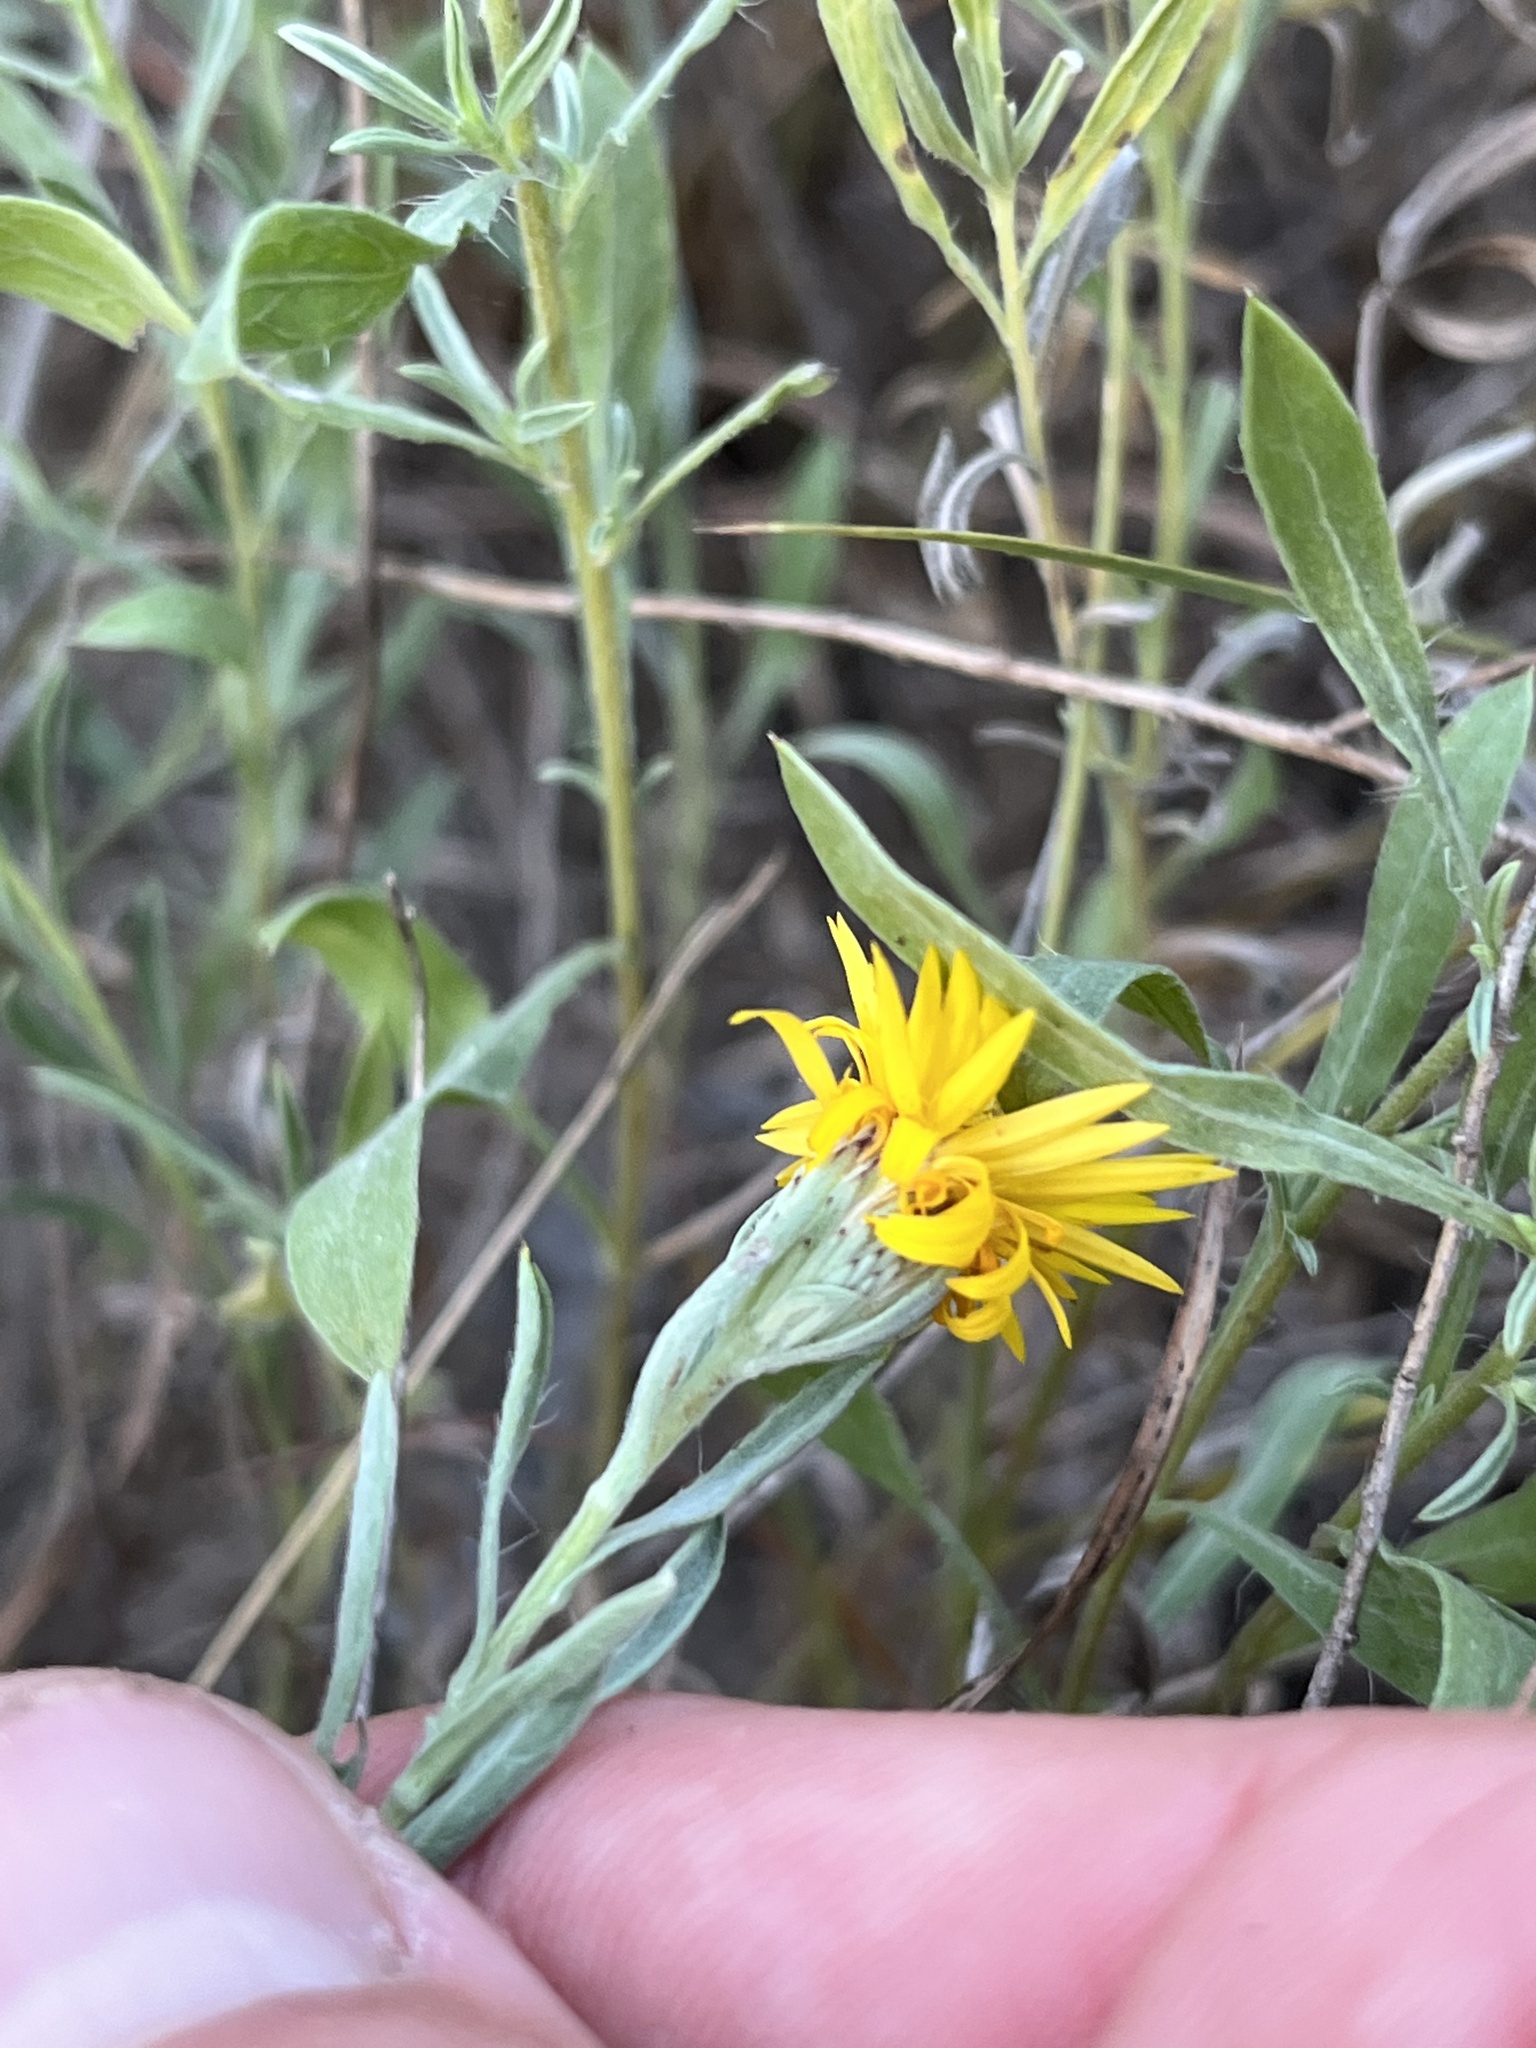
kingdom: Plantae
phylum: Tracheophyta
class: Magnoliopsida
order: Asterales
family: Asteraceae
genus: Heterotheca
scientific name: Heterotheca canescens
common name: Hoary golden-aster
